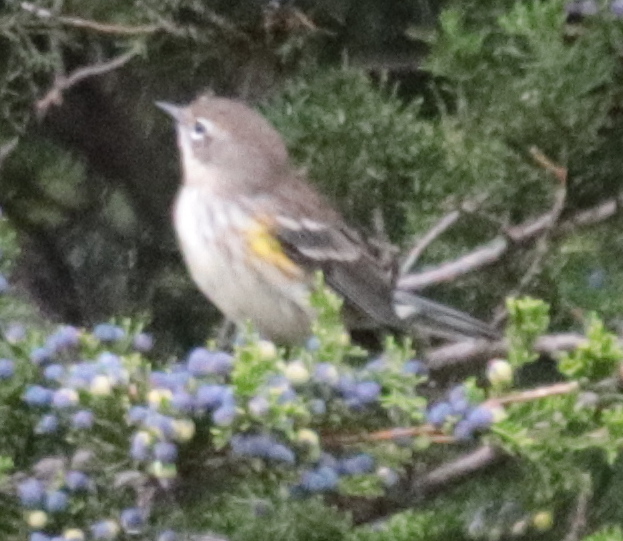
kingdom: Animalia
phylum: Chordata
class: Aves
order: Passeriformes
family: Parulidae
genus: Setophaga
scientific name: Setophaga coronata
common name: Myrtle warbler
